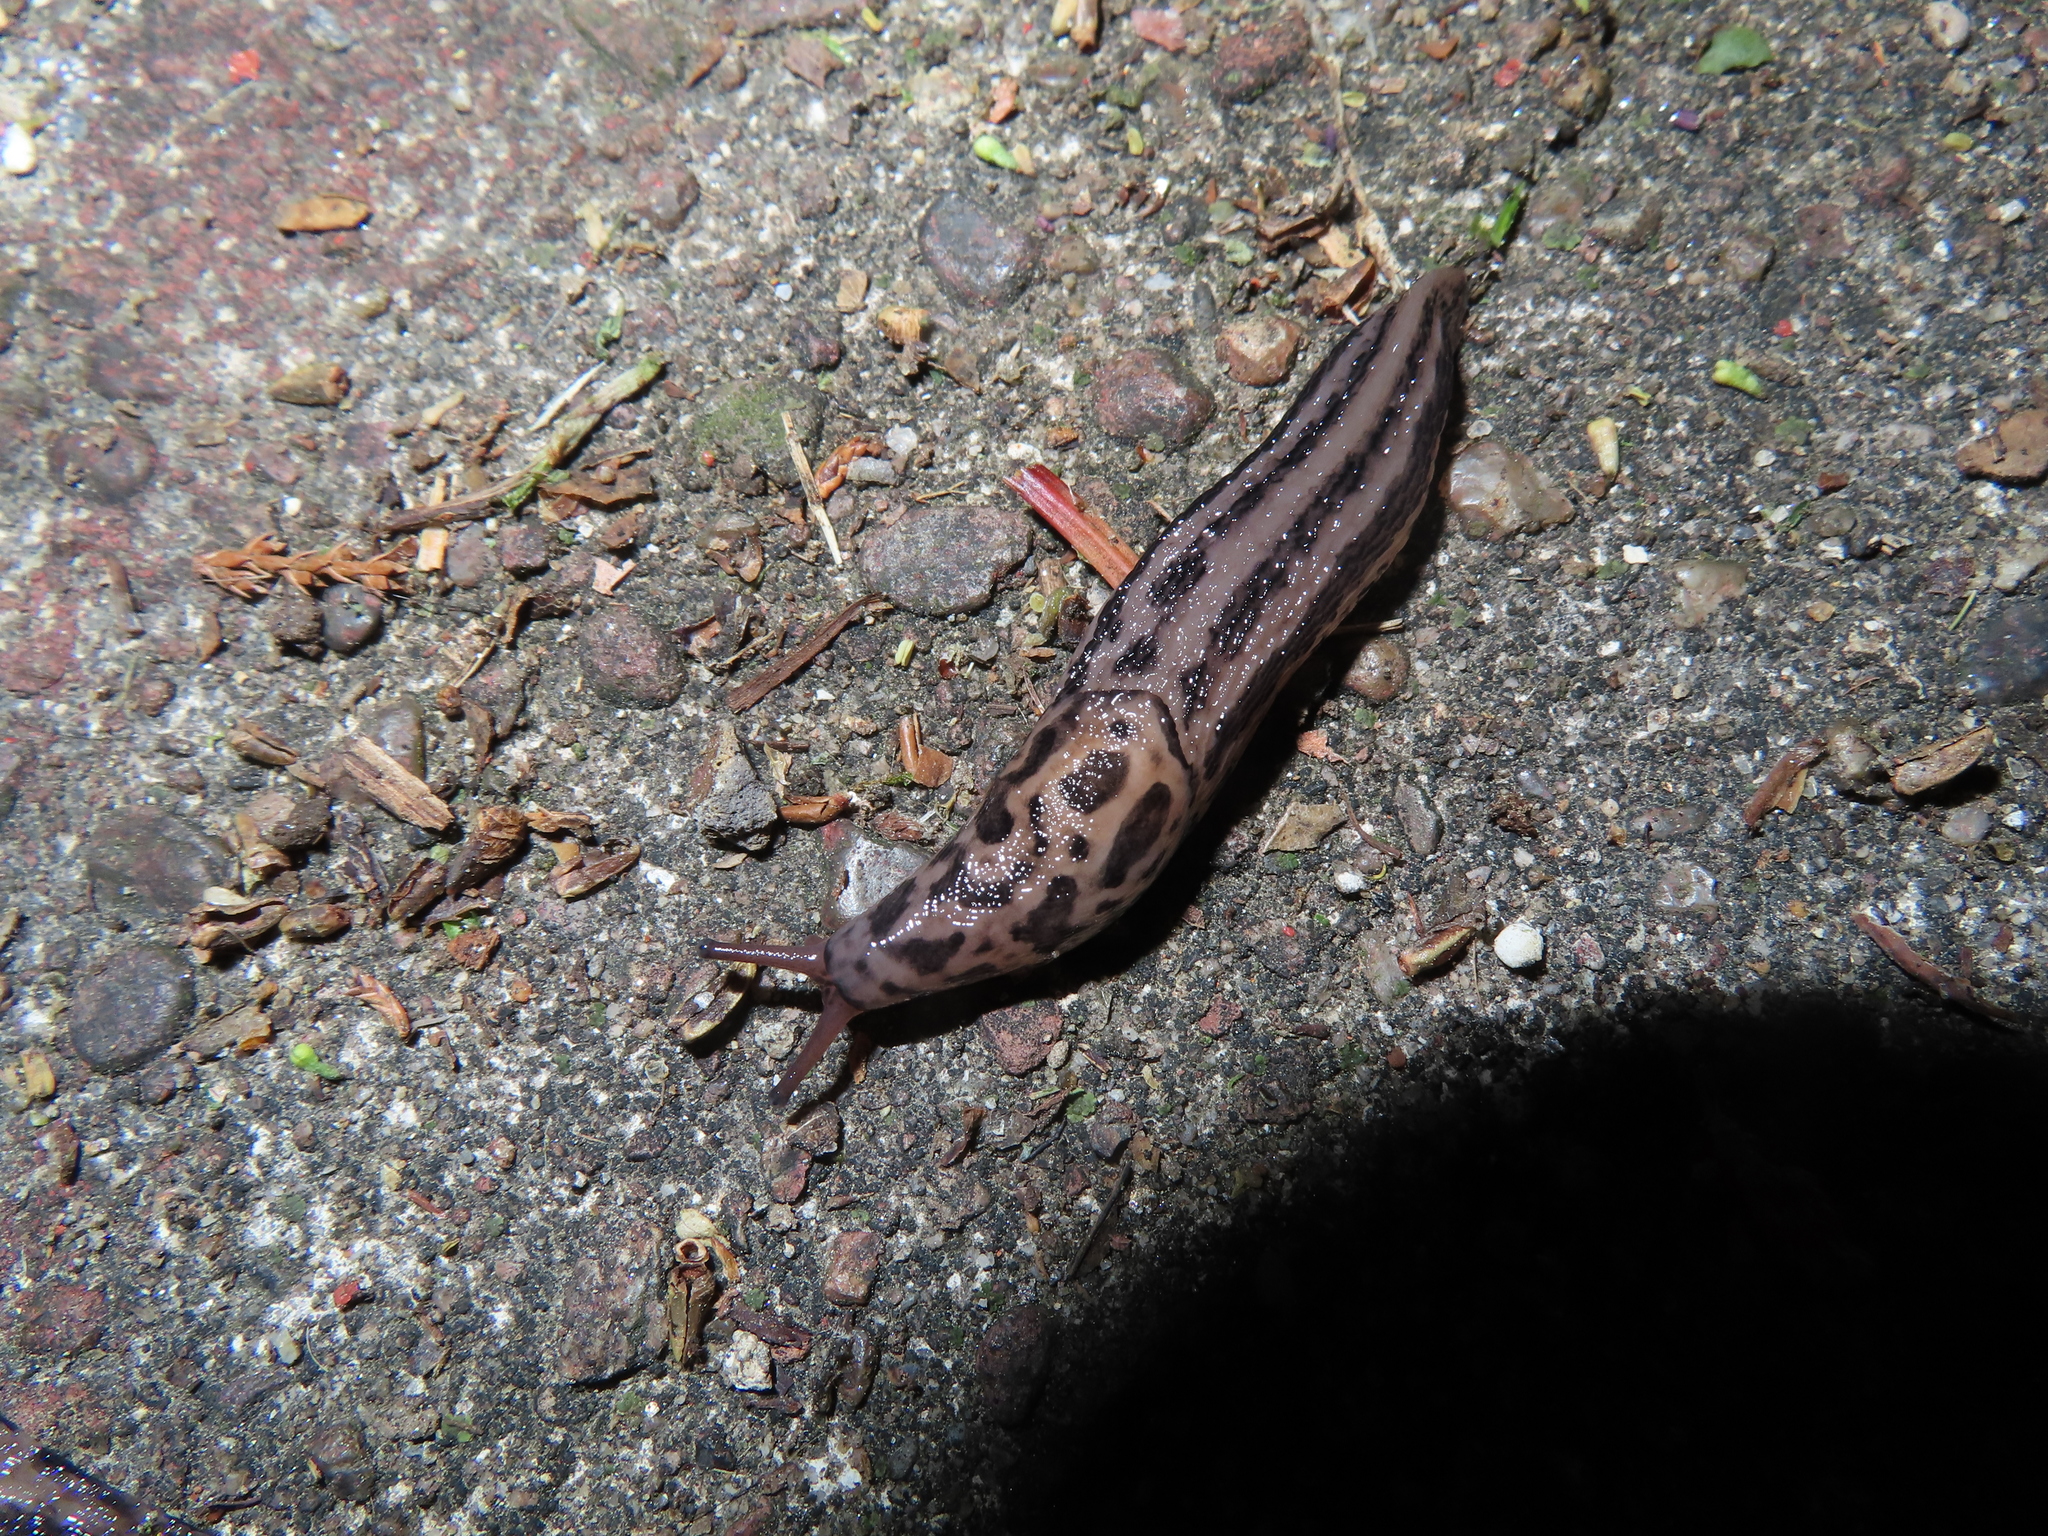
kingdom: Animalia
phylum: Mollusca
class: Gastropoda
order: Stylommatophora
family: Limacidae
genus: Limax
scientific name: Limax maximus
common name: Great grey slug
